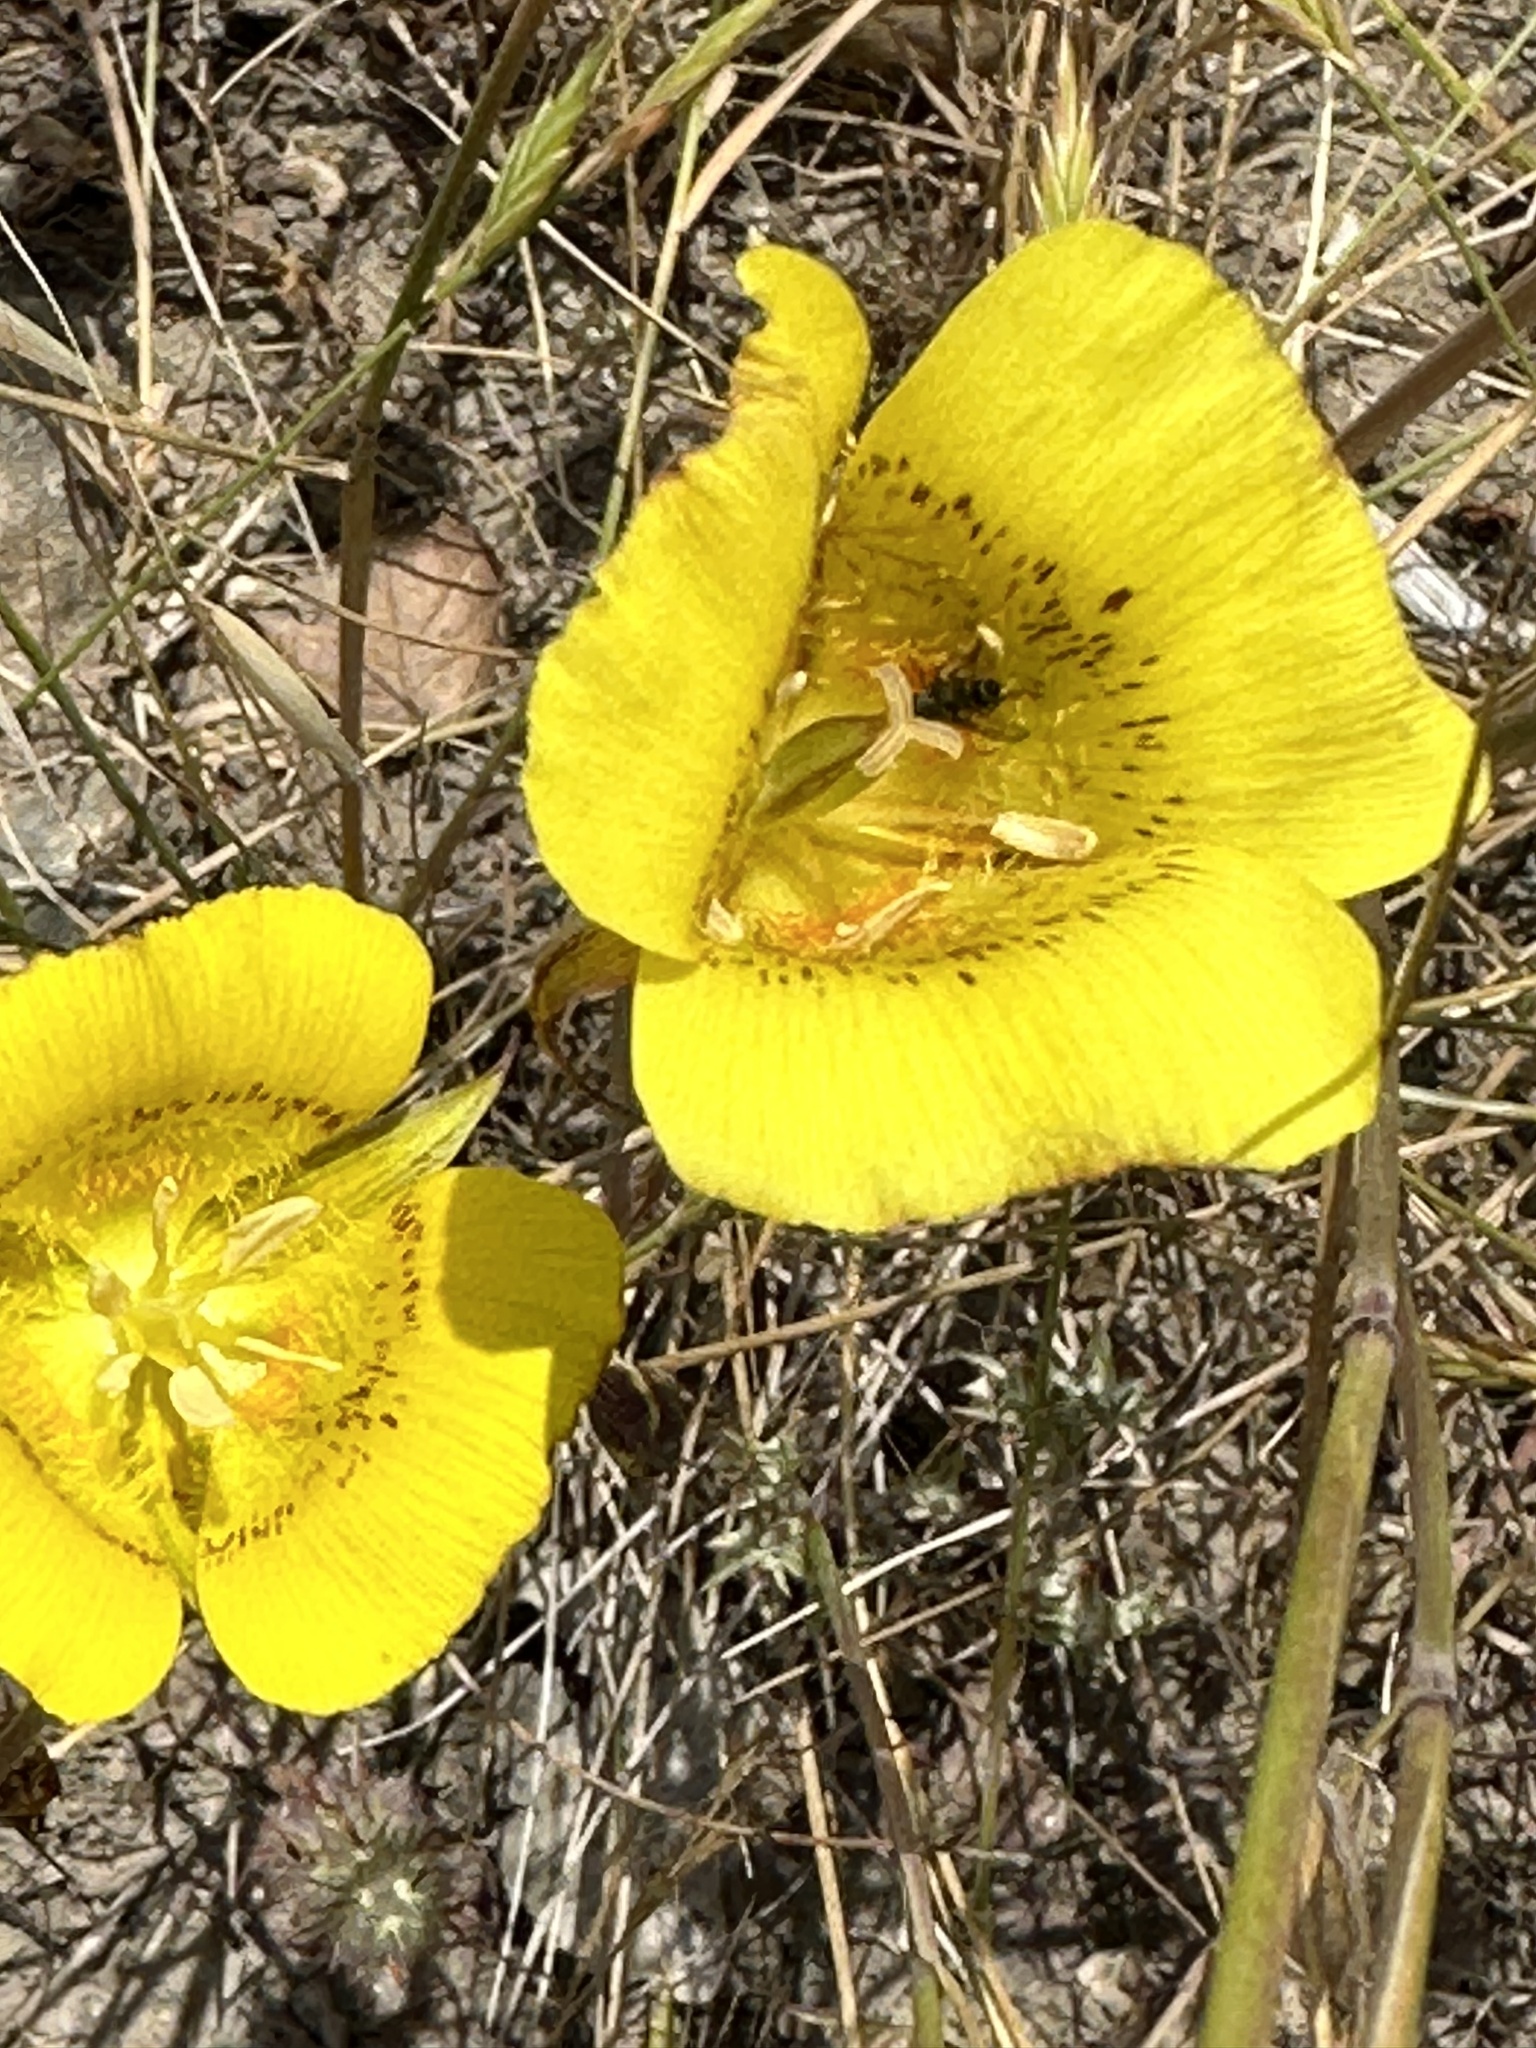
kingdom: Plantae
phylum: Tracheophyta
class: Liliopsida
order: Liliales
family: Liliaceae
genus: Calochortus
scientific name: Calochortus luteus
